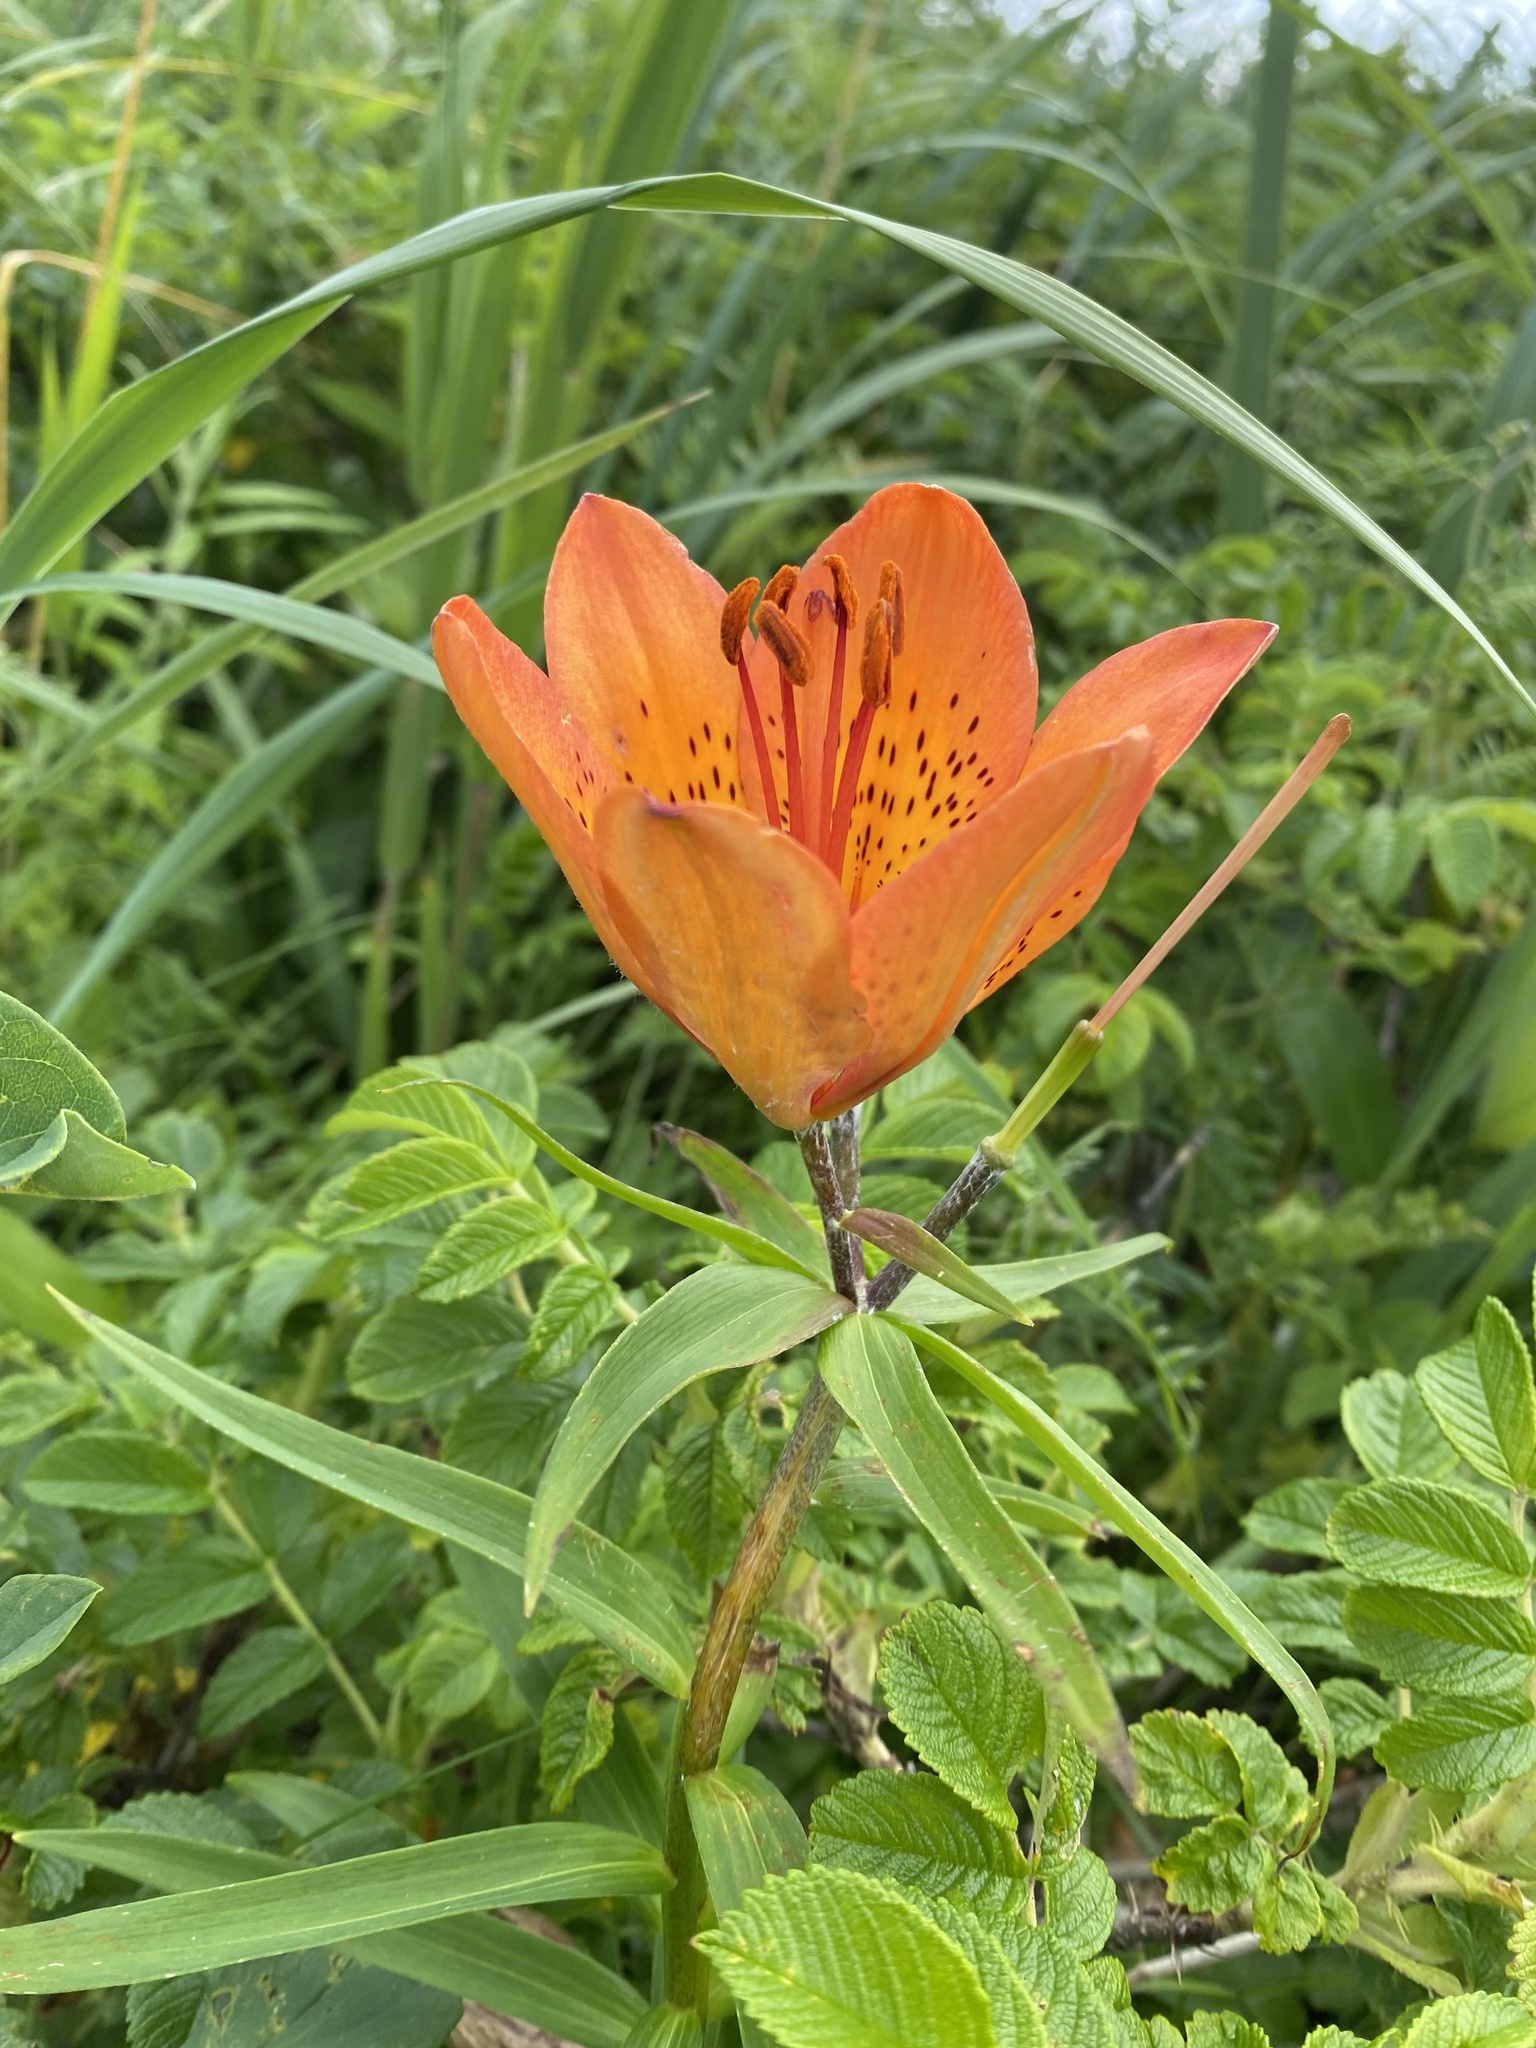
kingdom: Plantae
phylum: Tracheophyta
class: Liliopsida
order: Liliales
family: Liliaceae
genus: Lilium
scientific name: Lilium pensylvanicum
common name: Candlestick lily
